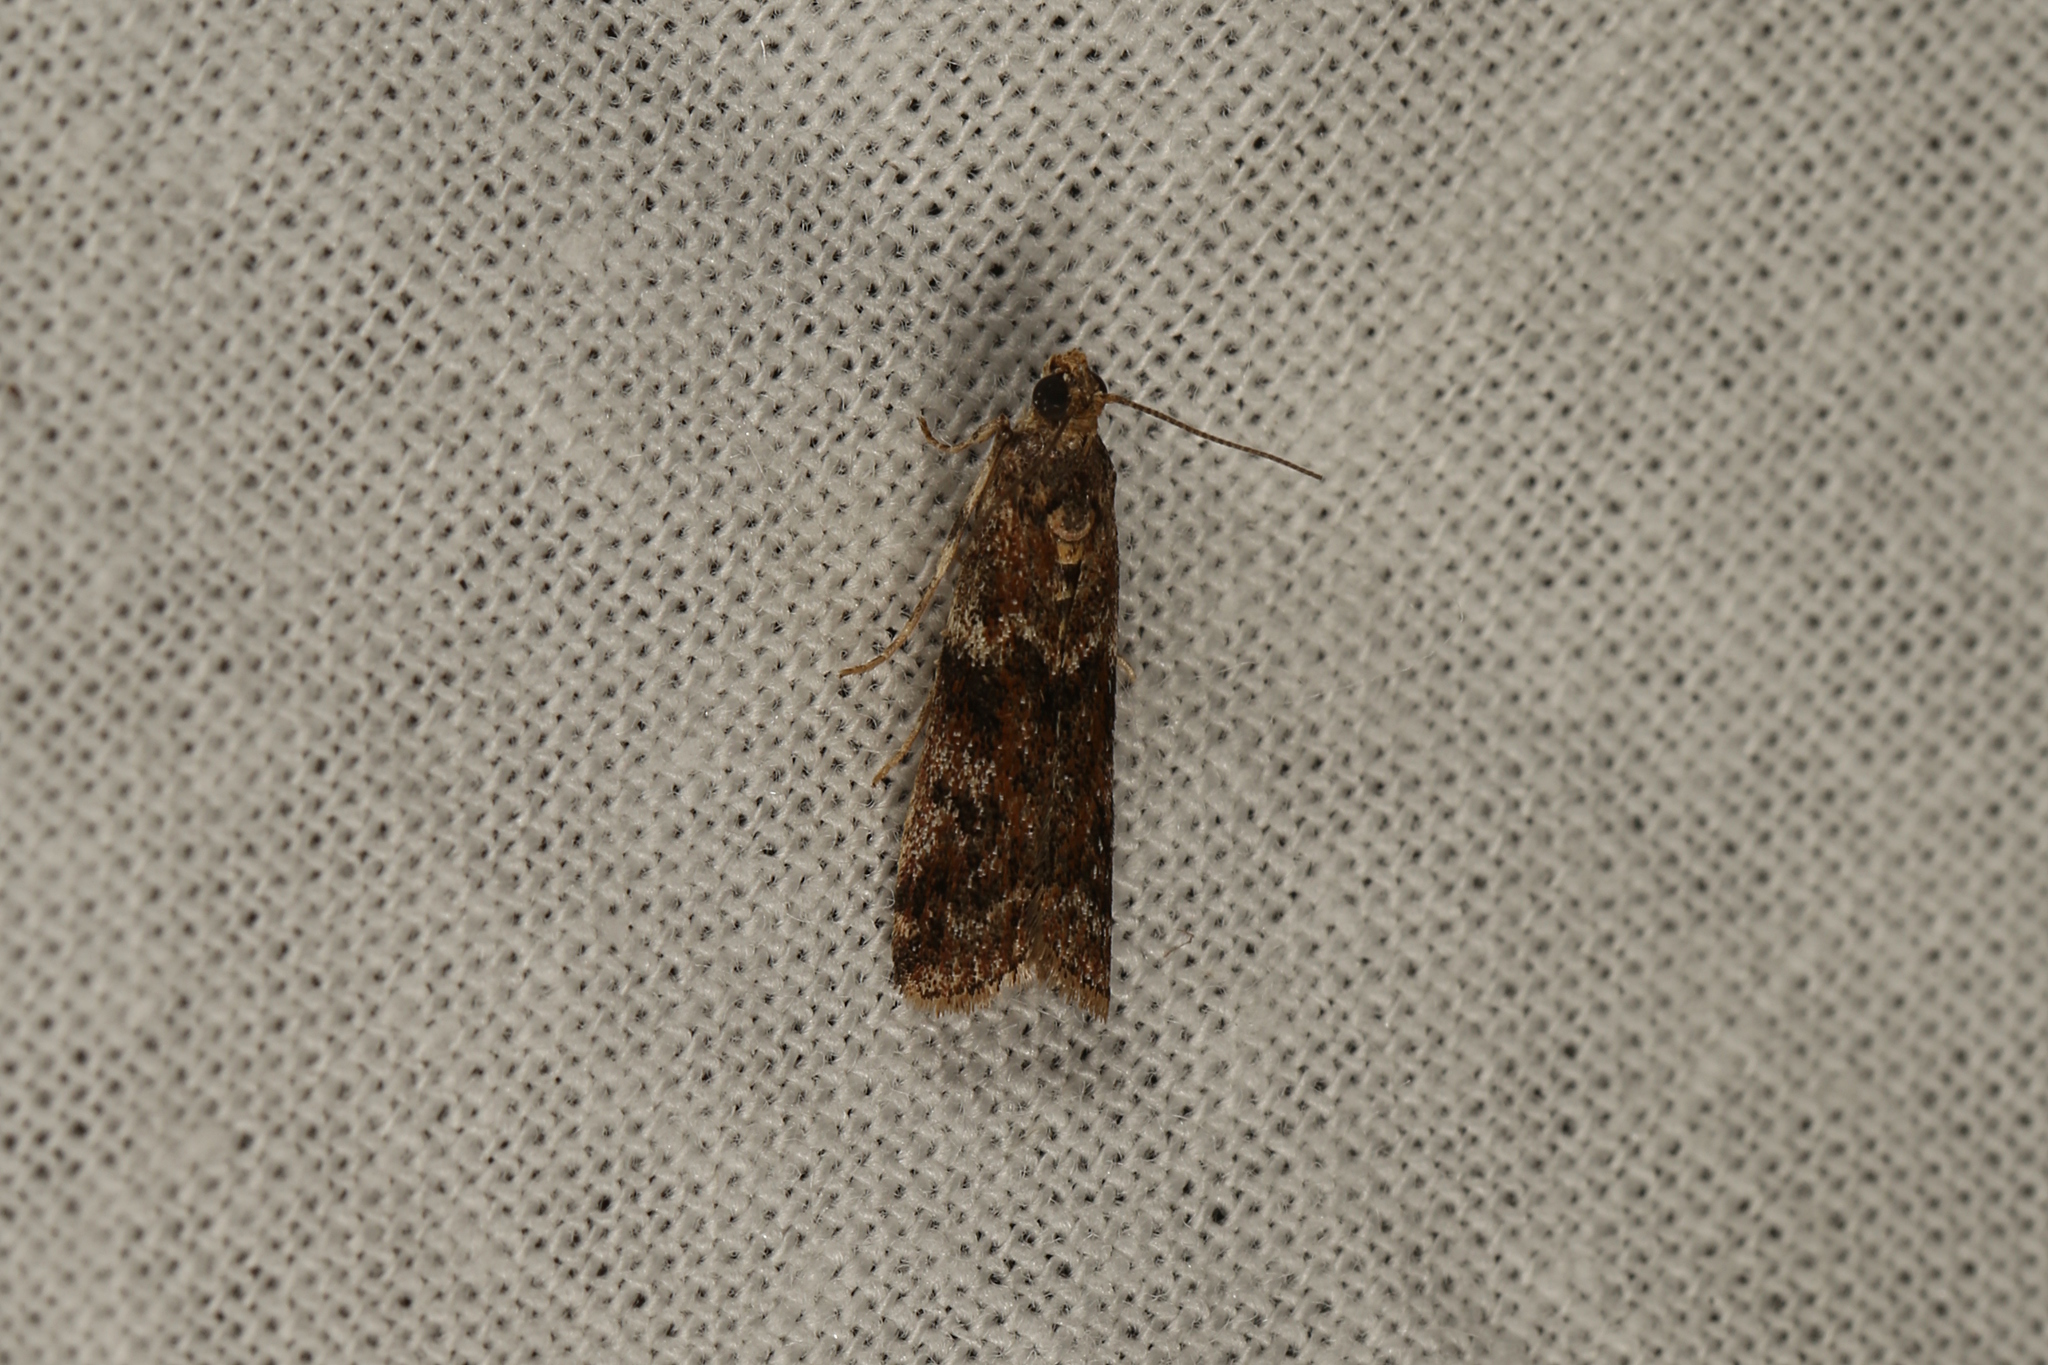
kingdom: Animalia
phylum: Arthropoda
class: Insecta
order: Lepidoptera
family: Pyralidae
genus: Ephestiopsis
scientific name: Ephestiopsis oenobarella
